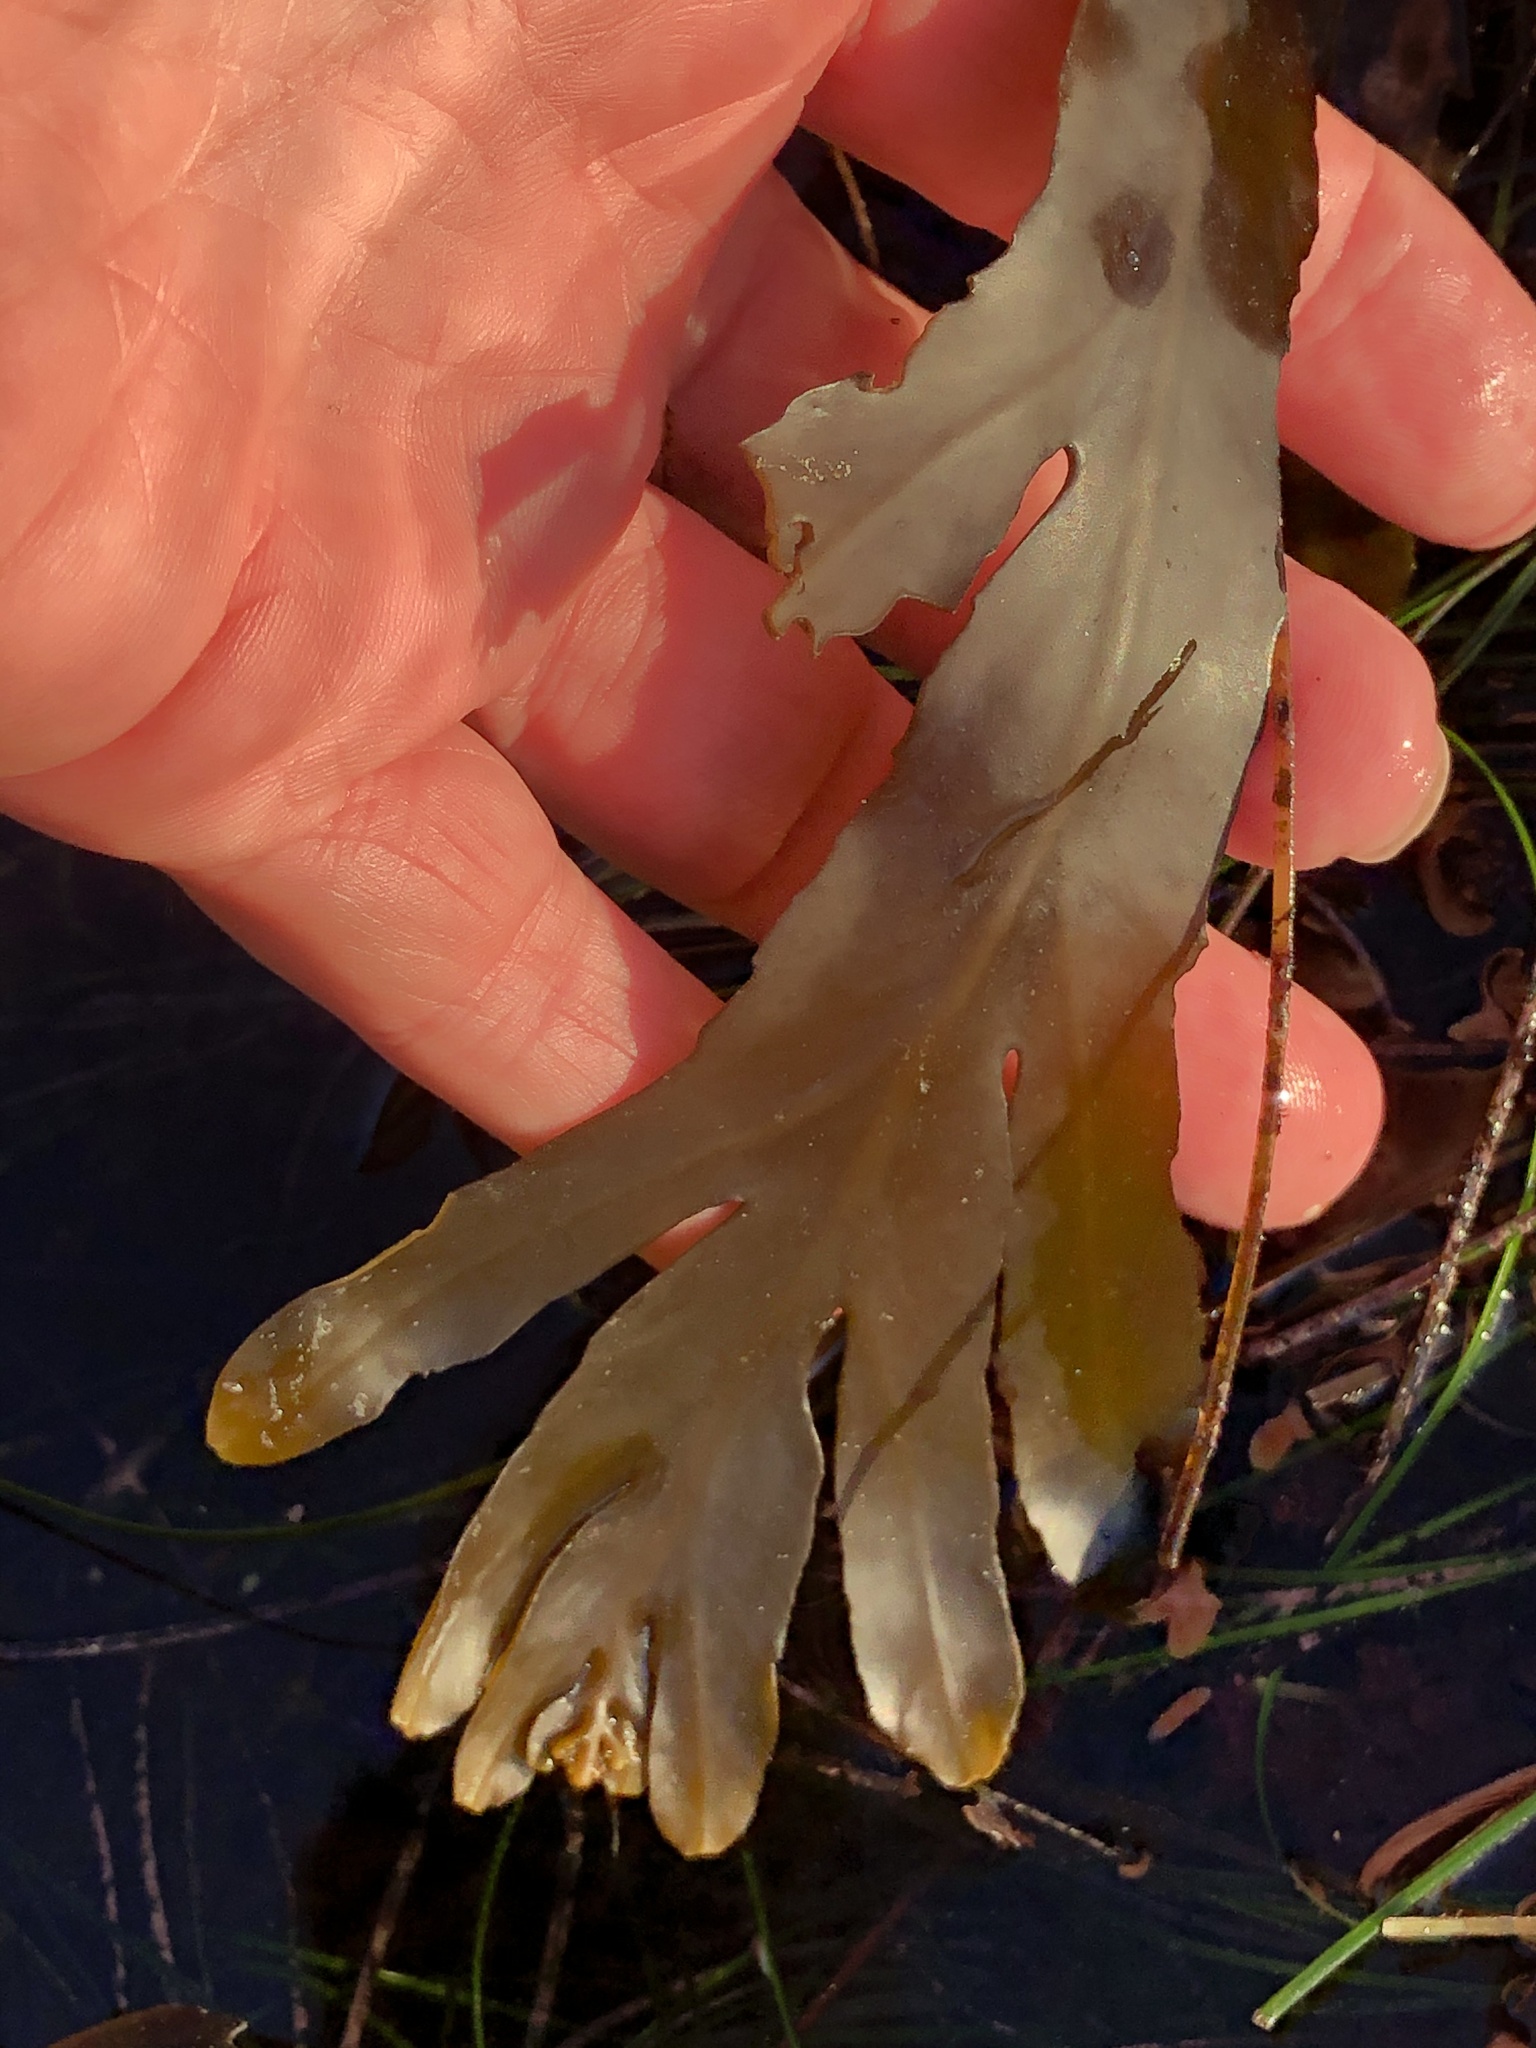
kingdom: Chromista
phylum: Ochrophyta
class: Phaeophyceae
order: Fucales
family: Sargassaceae
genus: Stephanocystis
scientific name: Stephanocystis
